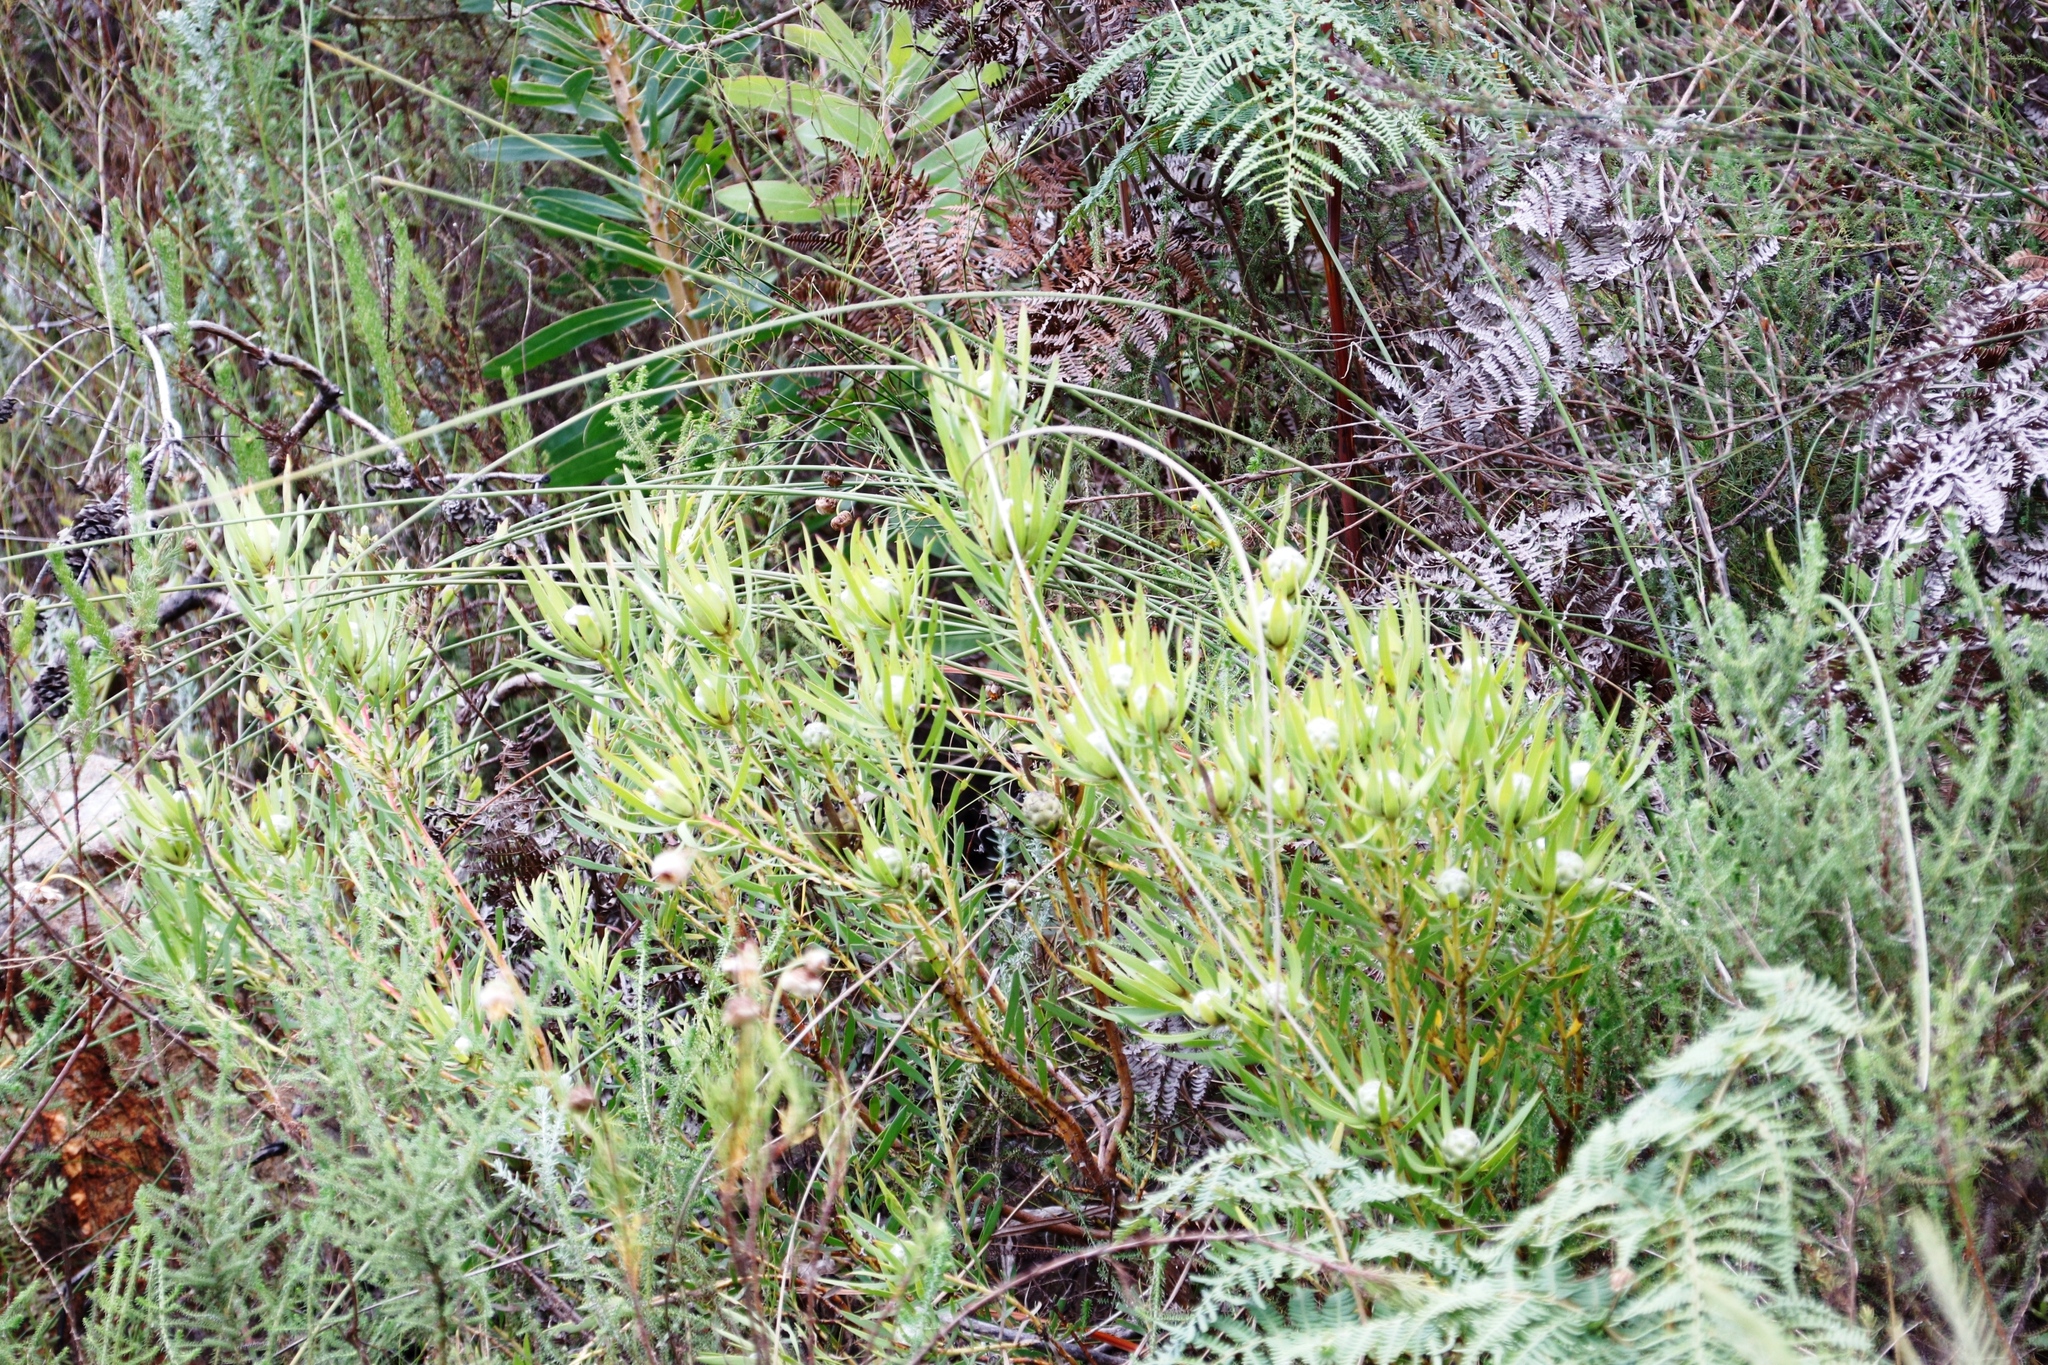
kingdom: Plantae
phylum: Tracheophyta
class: Magnoliopsida
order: Proteales
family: Proteaceae
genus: Leucadendron
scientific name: Leucadendron salignum
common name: Common sunshine conebush
